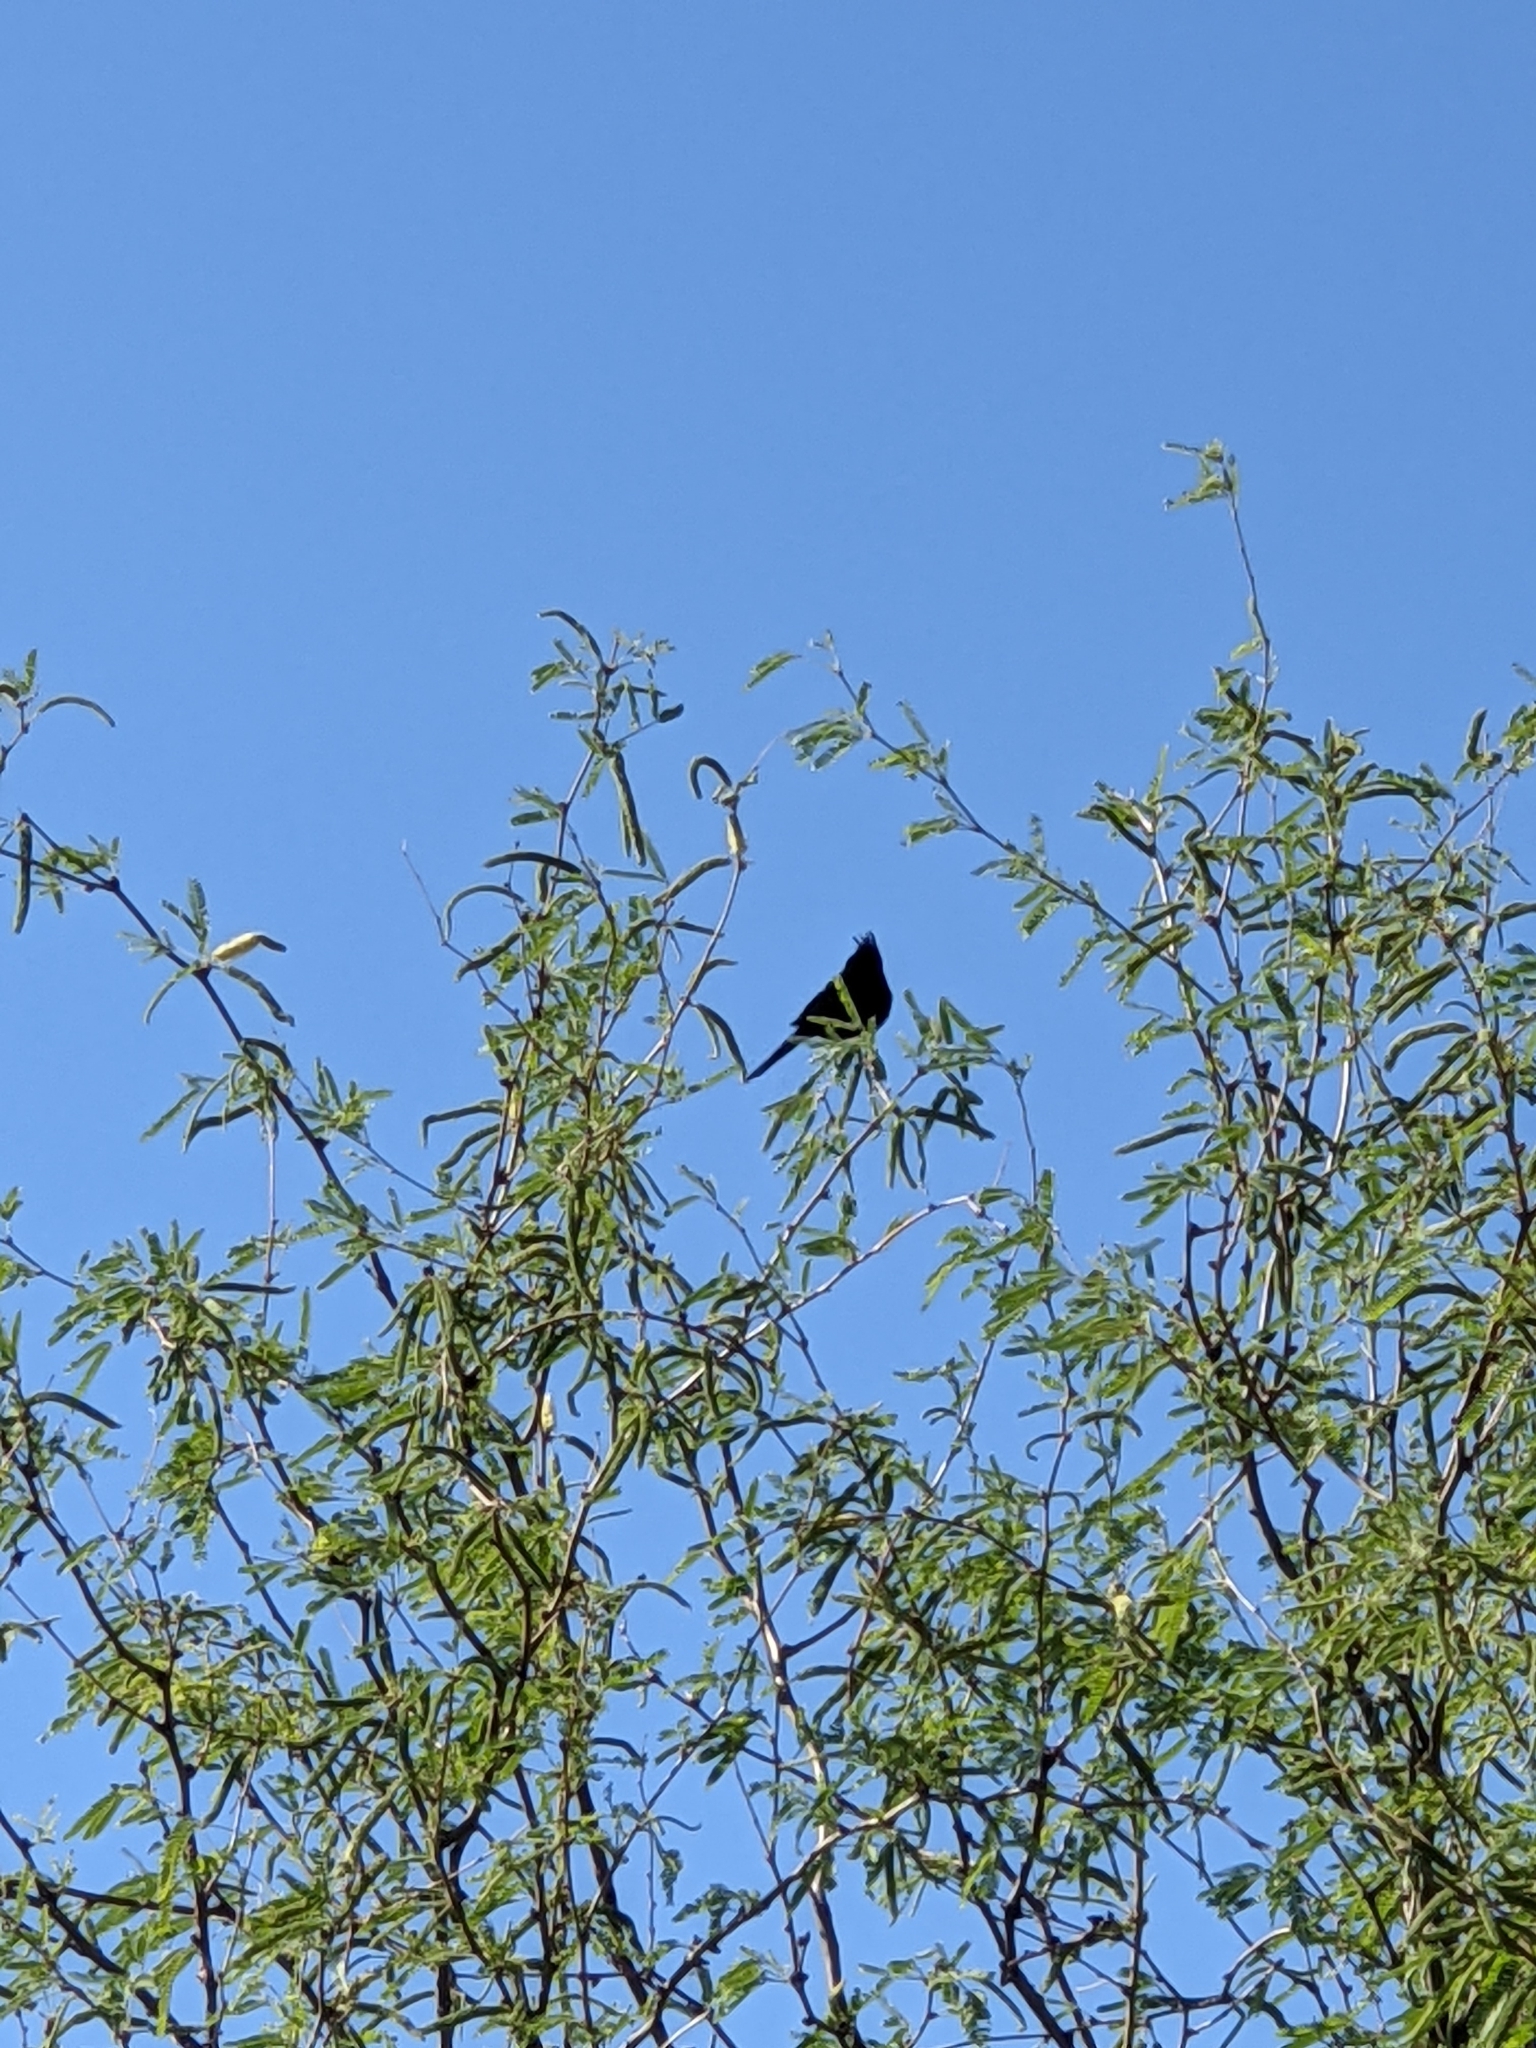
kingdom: Animalia
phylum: Chordata
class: Aves
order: Passeriformes
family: Ptilogonatidae
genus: Phainopepla
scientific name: Phainopepla nitens
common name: Phainopepla
